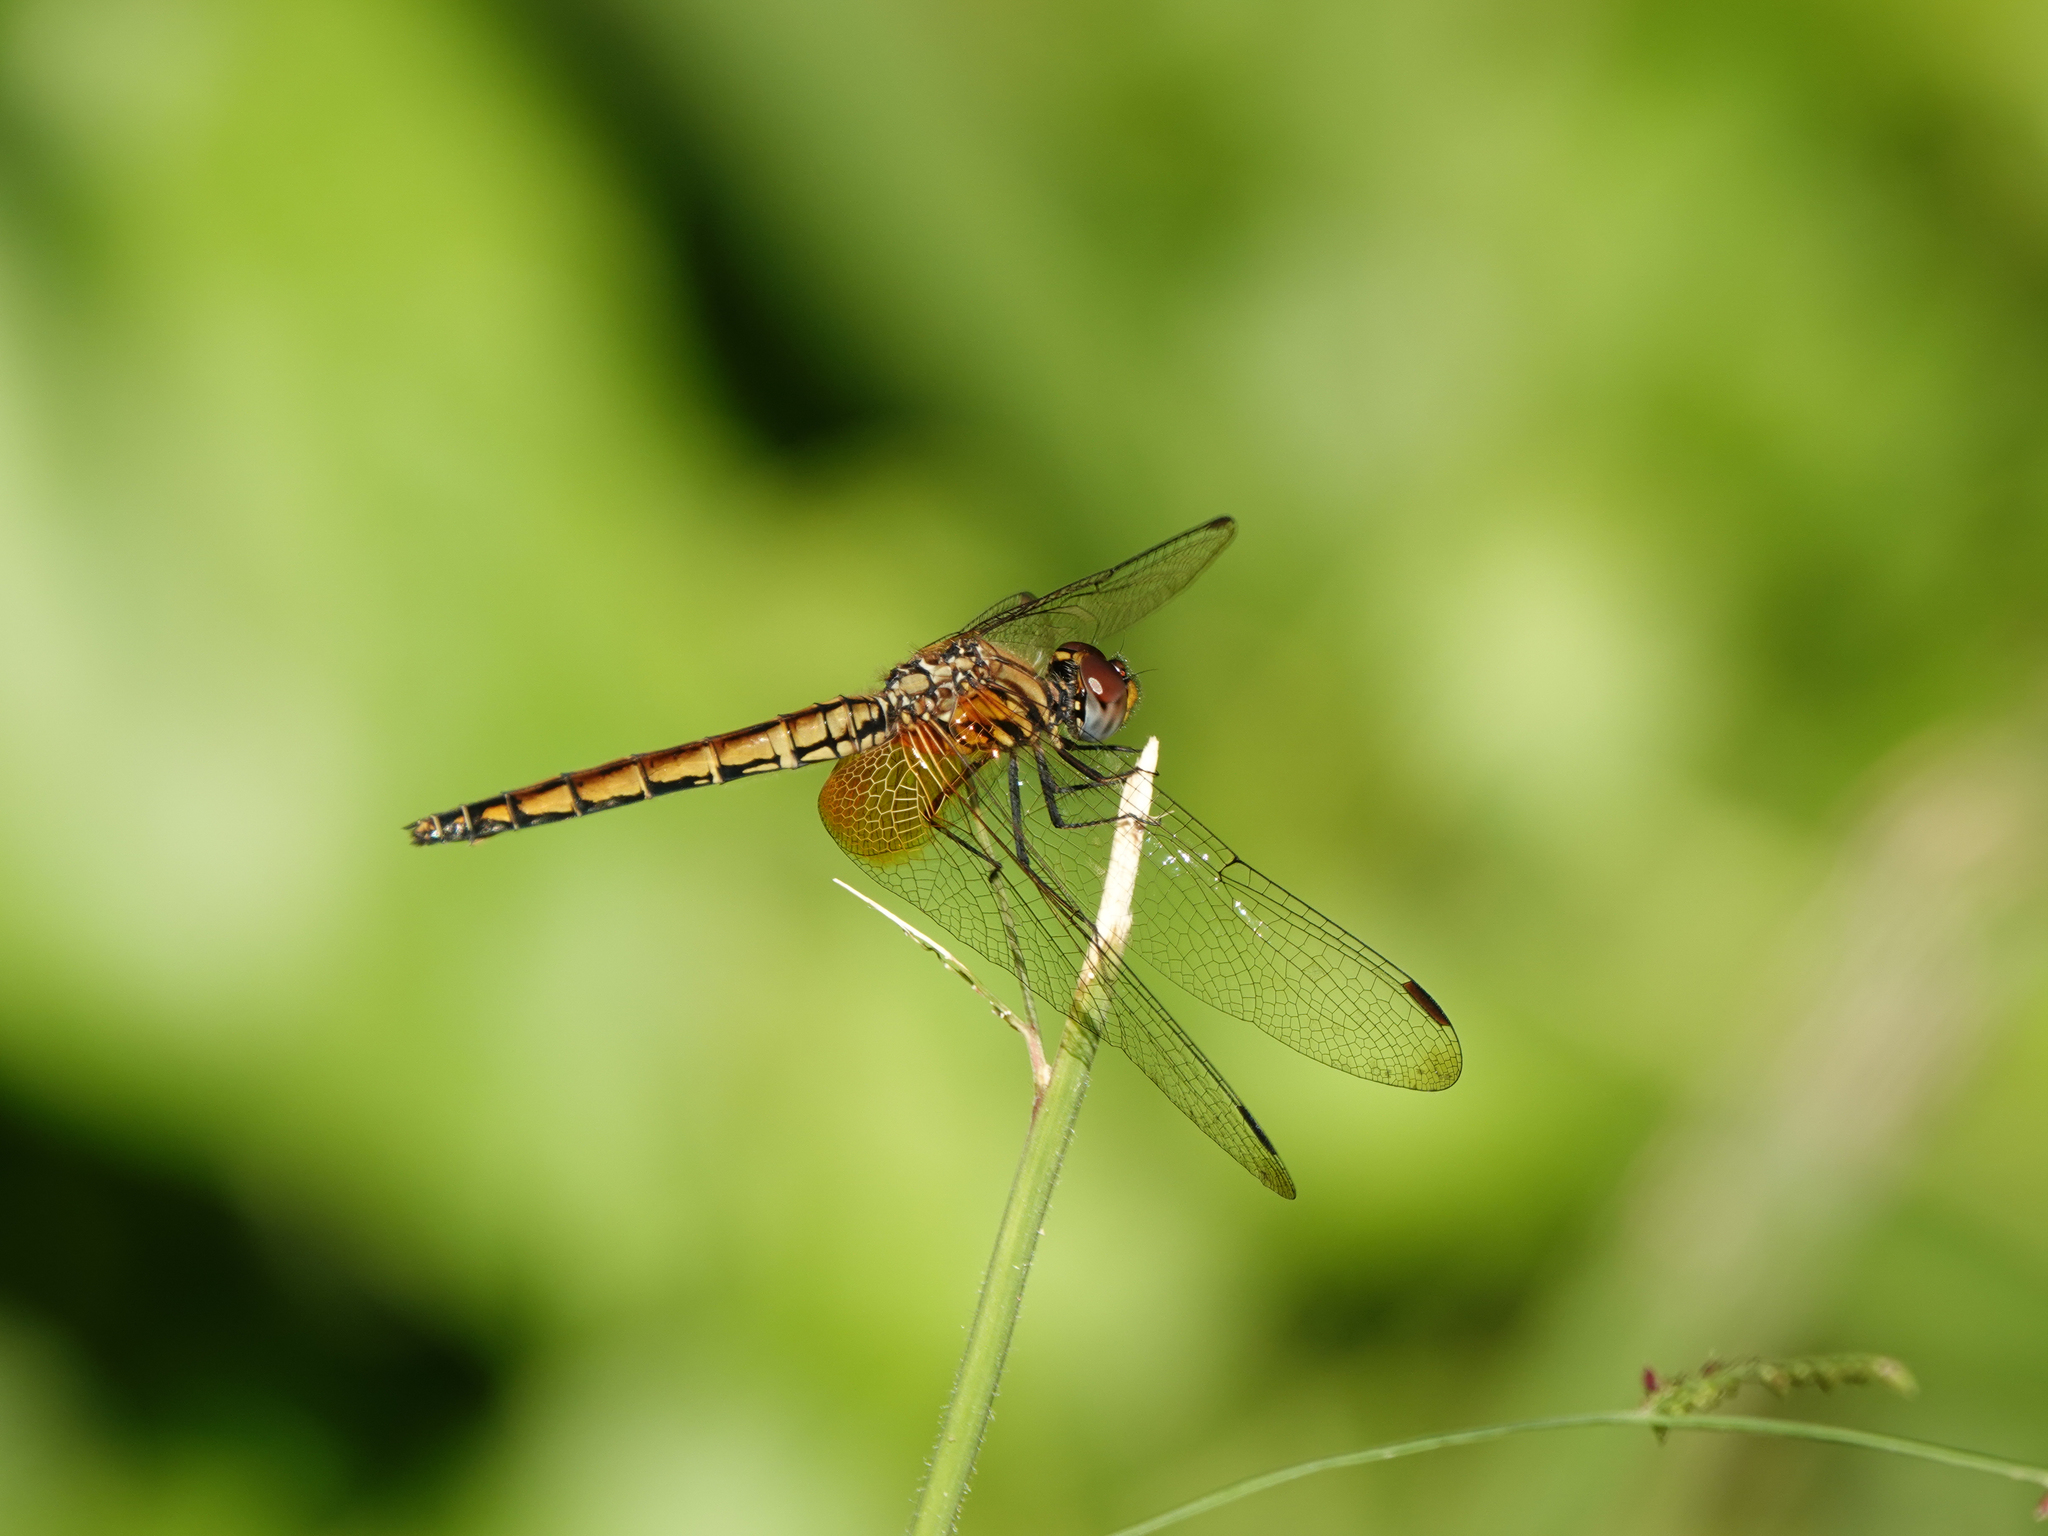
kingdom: Animalia
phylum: Arthropoda
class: Insecta
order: Odonata
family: Libellulidae
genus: Trithemis
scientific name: Trithemis aurora
